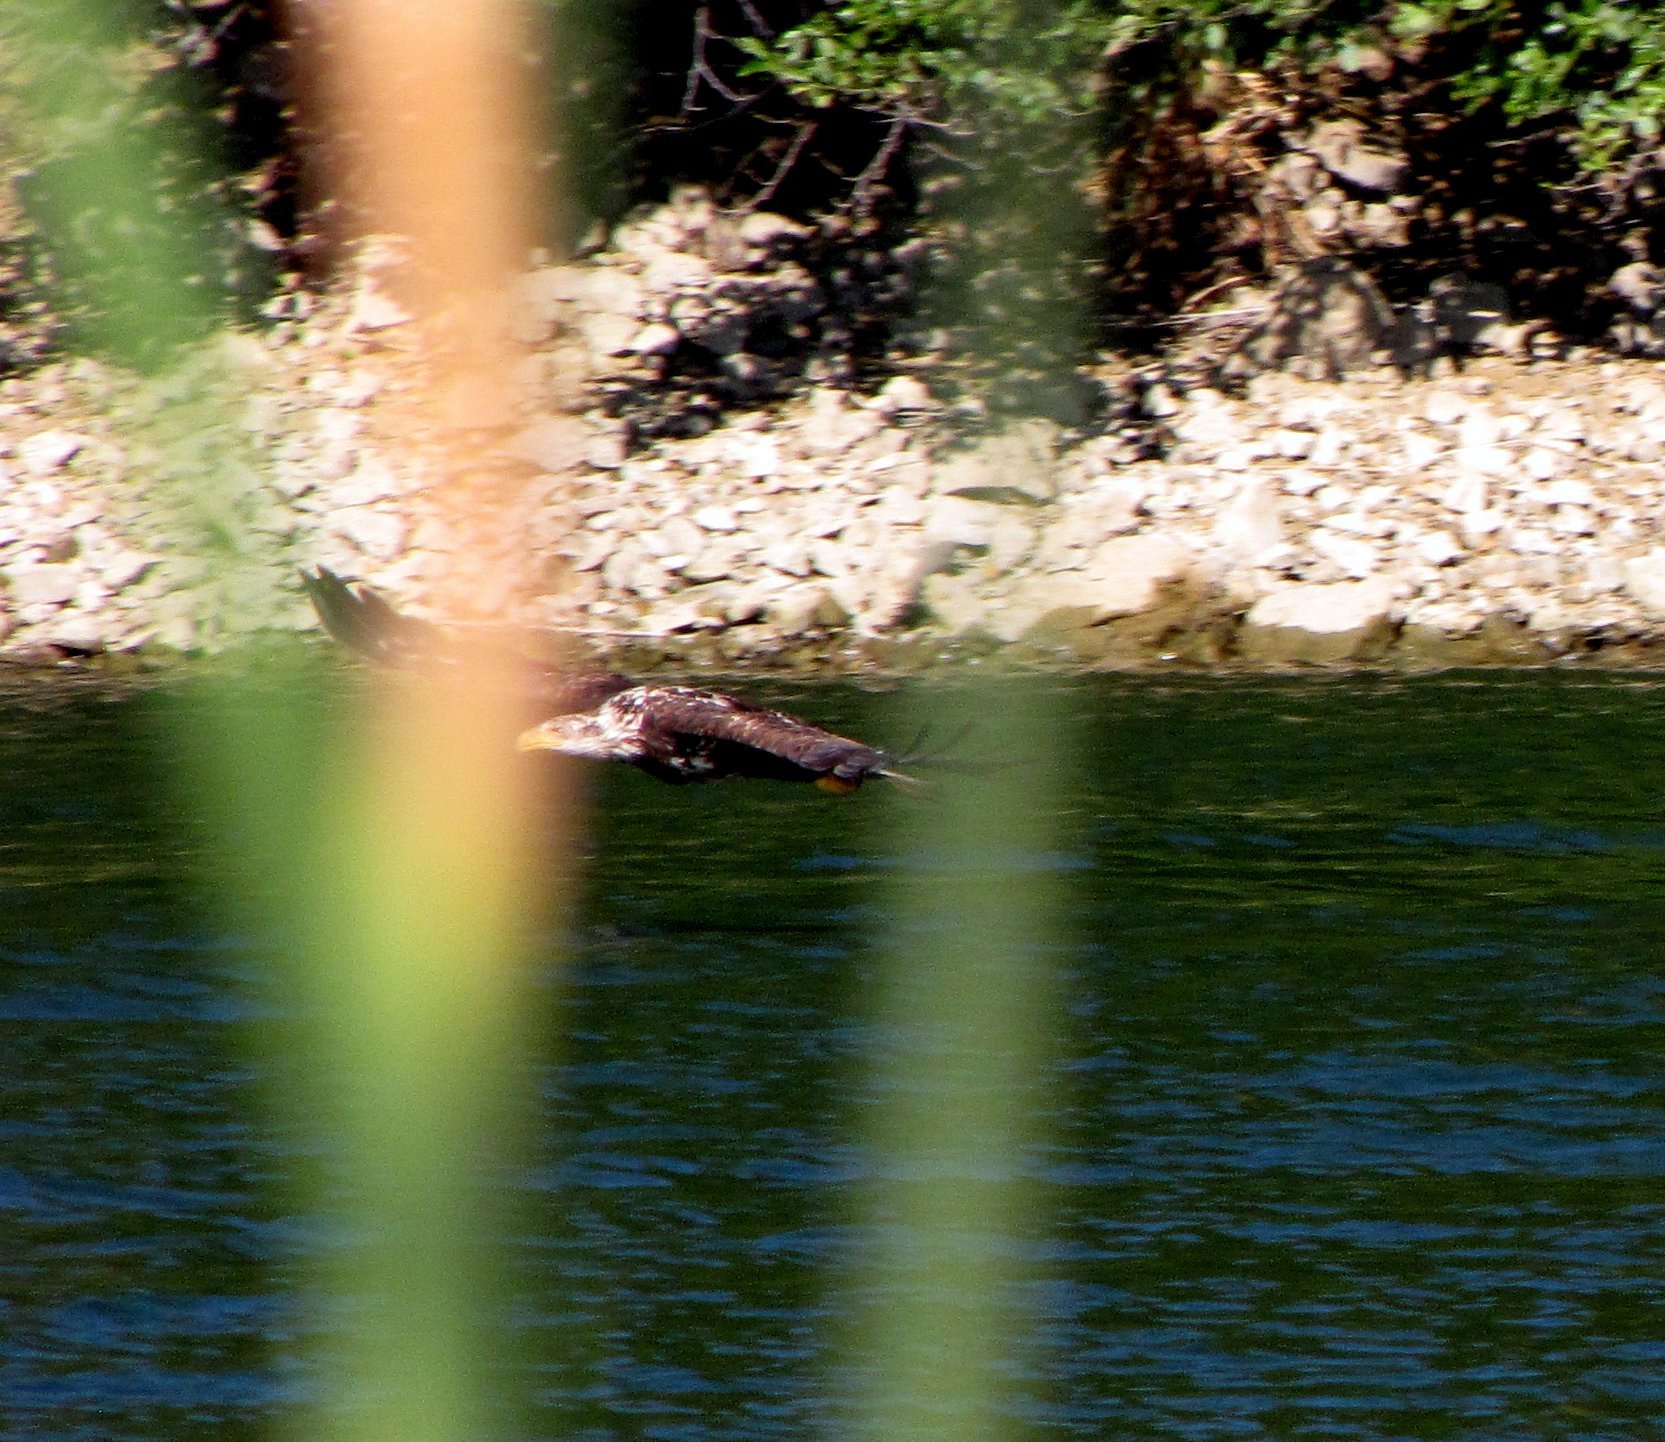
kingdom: Animalia
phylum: Chordata
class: Aves
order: Accipitriformes
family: Accipitridae
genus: Haliaeetus
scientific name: Haliaeetus leucocephalus
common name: Bald eagle
